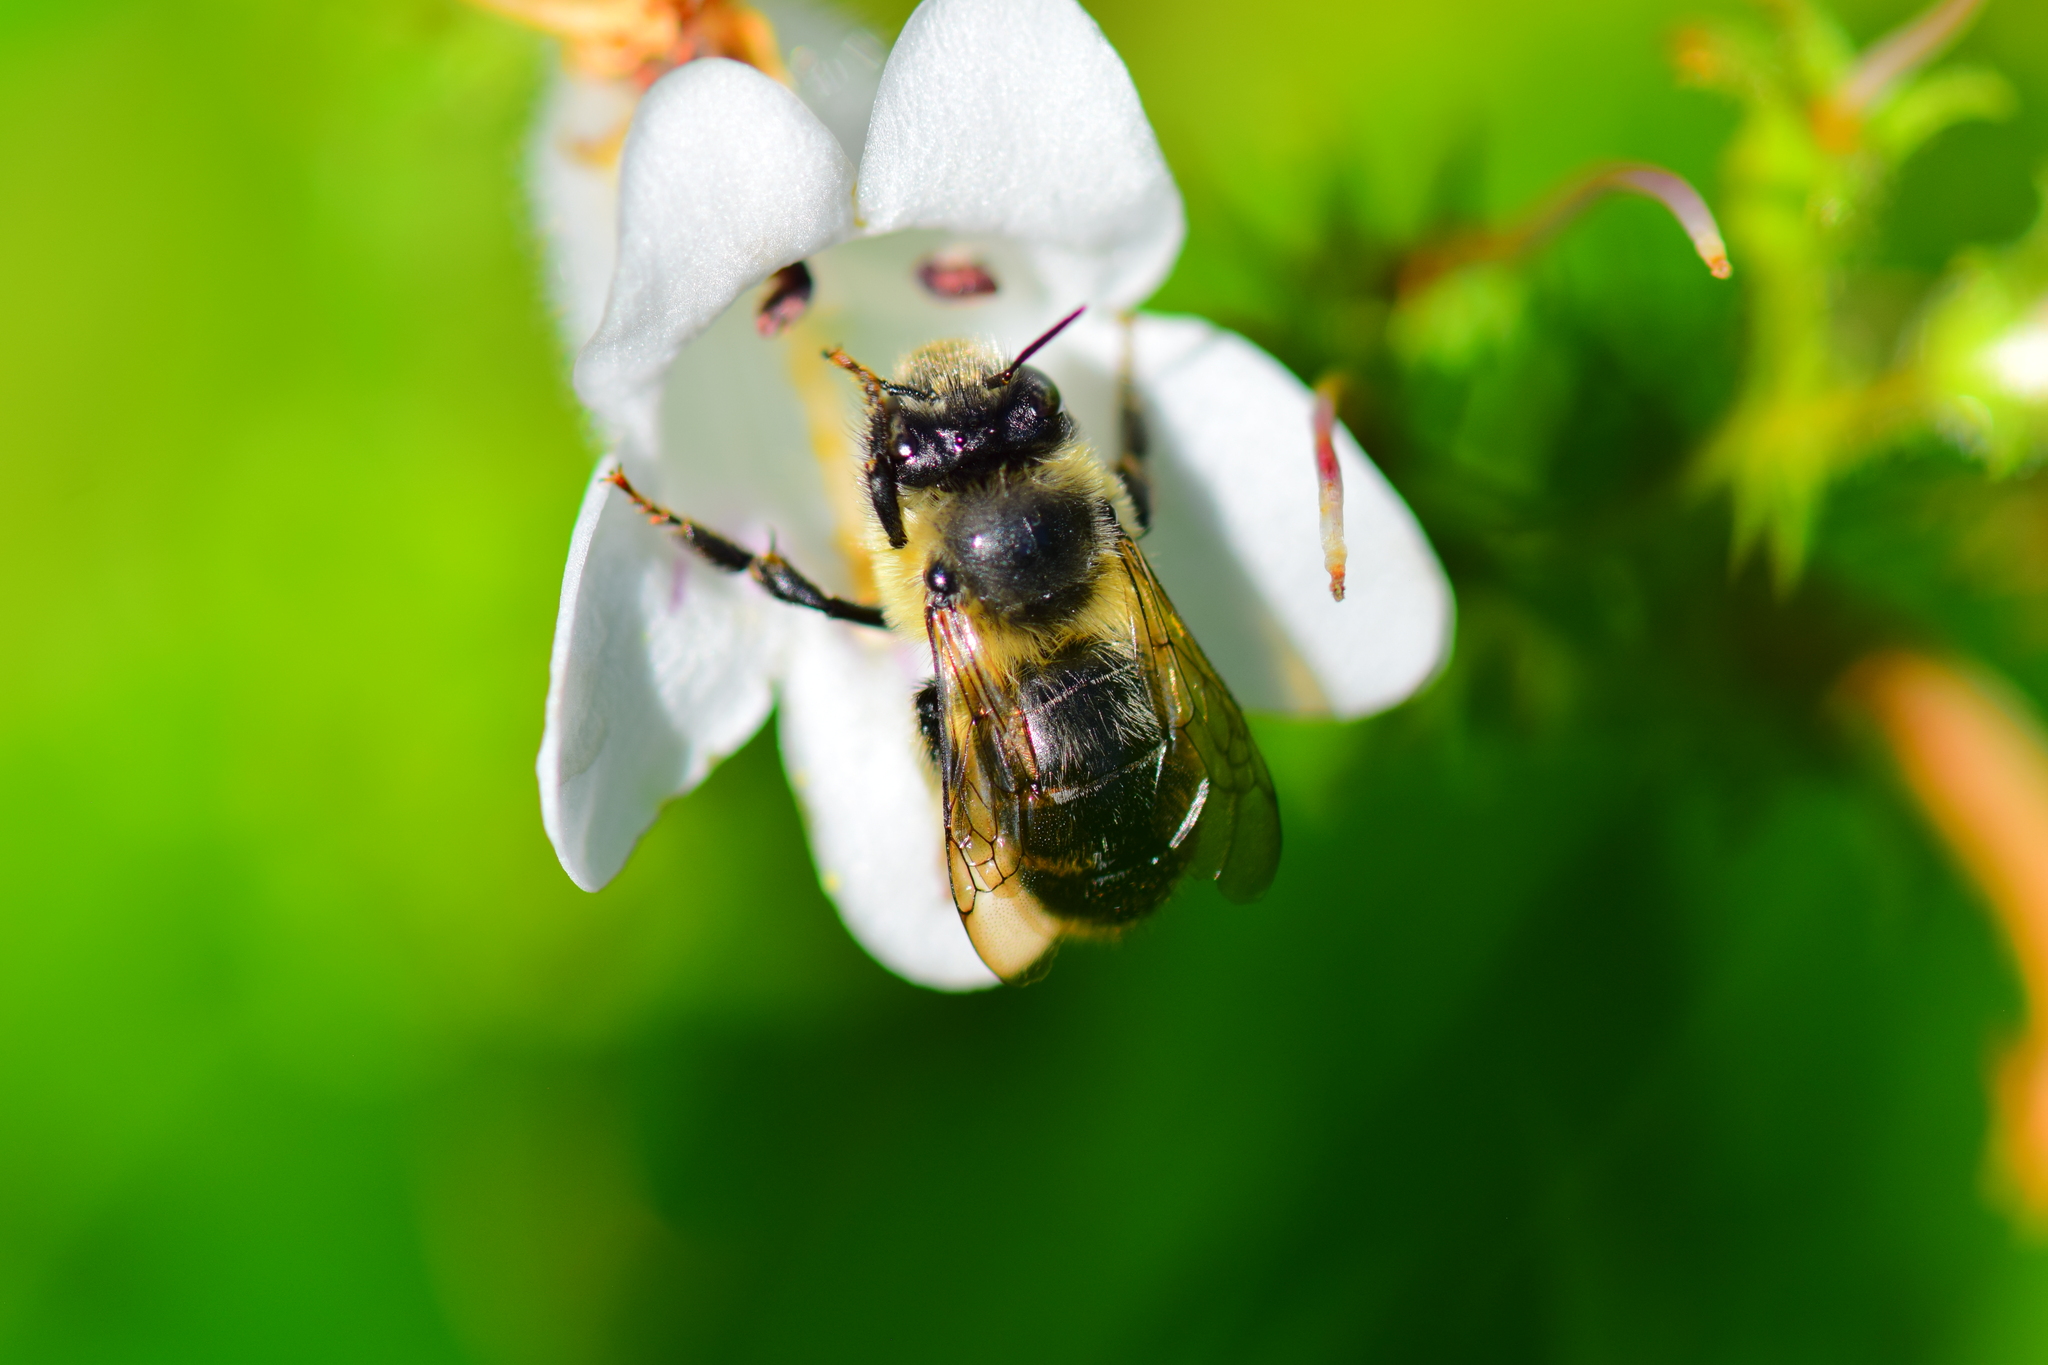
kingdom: Animalia
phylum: Arthropoda
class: Insecta
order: Hymenoptera
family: Apidae
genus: Anthophora
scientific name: Anthophora terminalis
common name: Orange-tipped wood-digger bee
